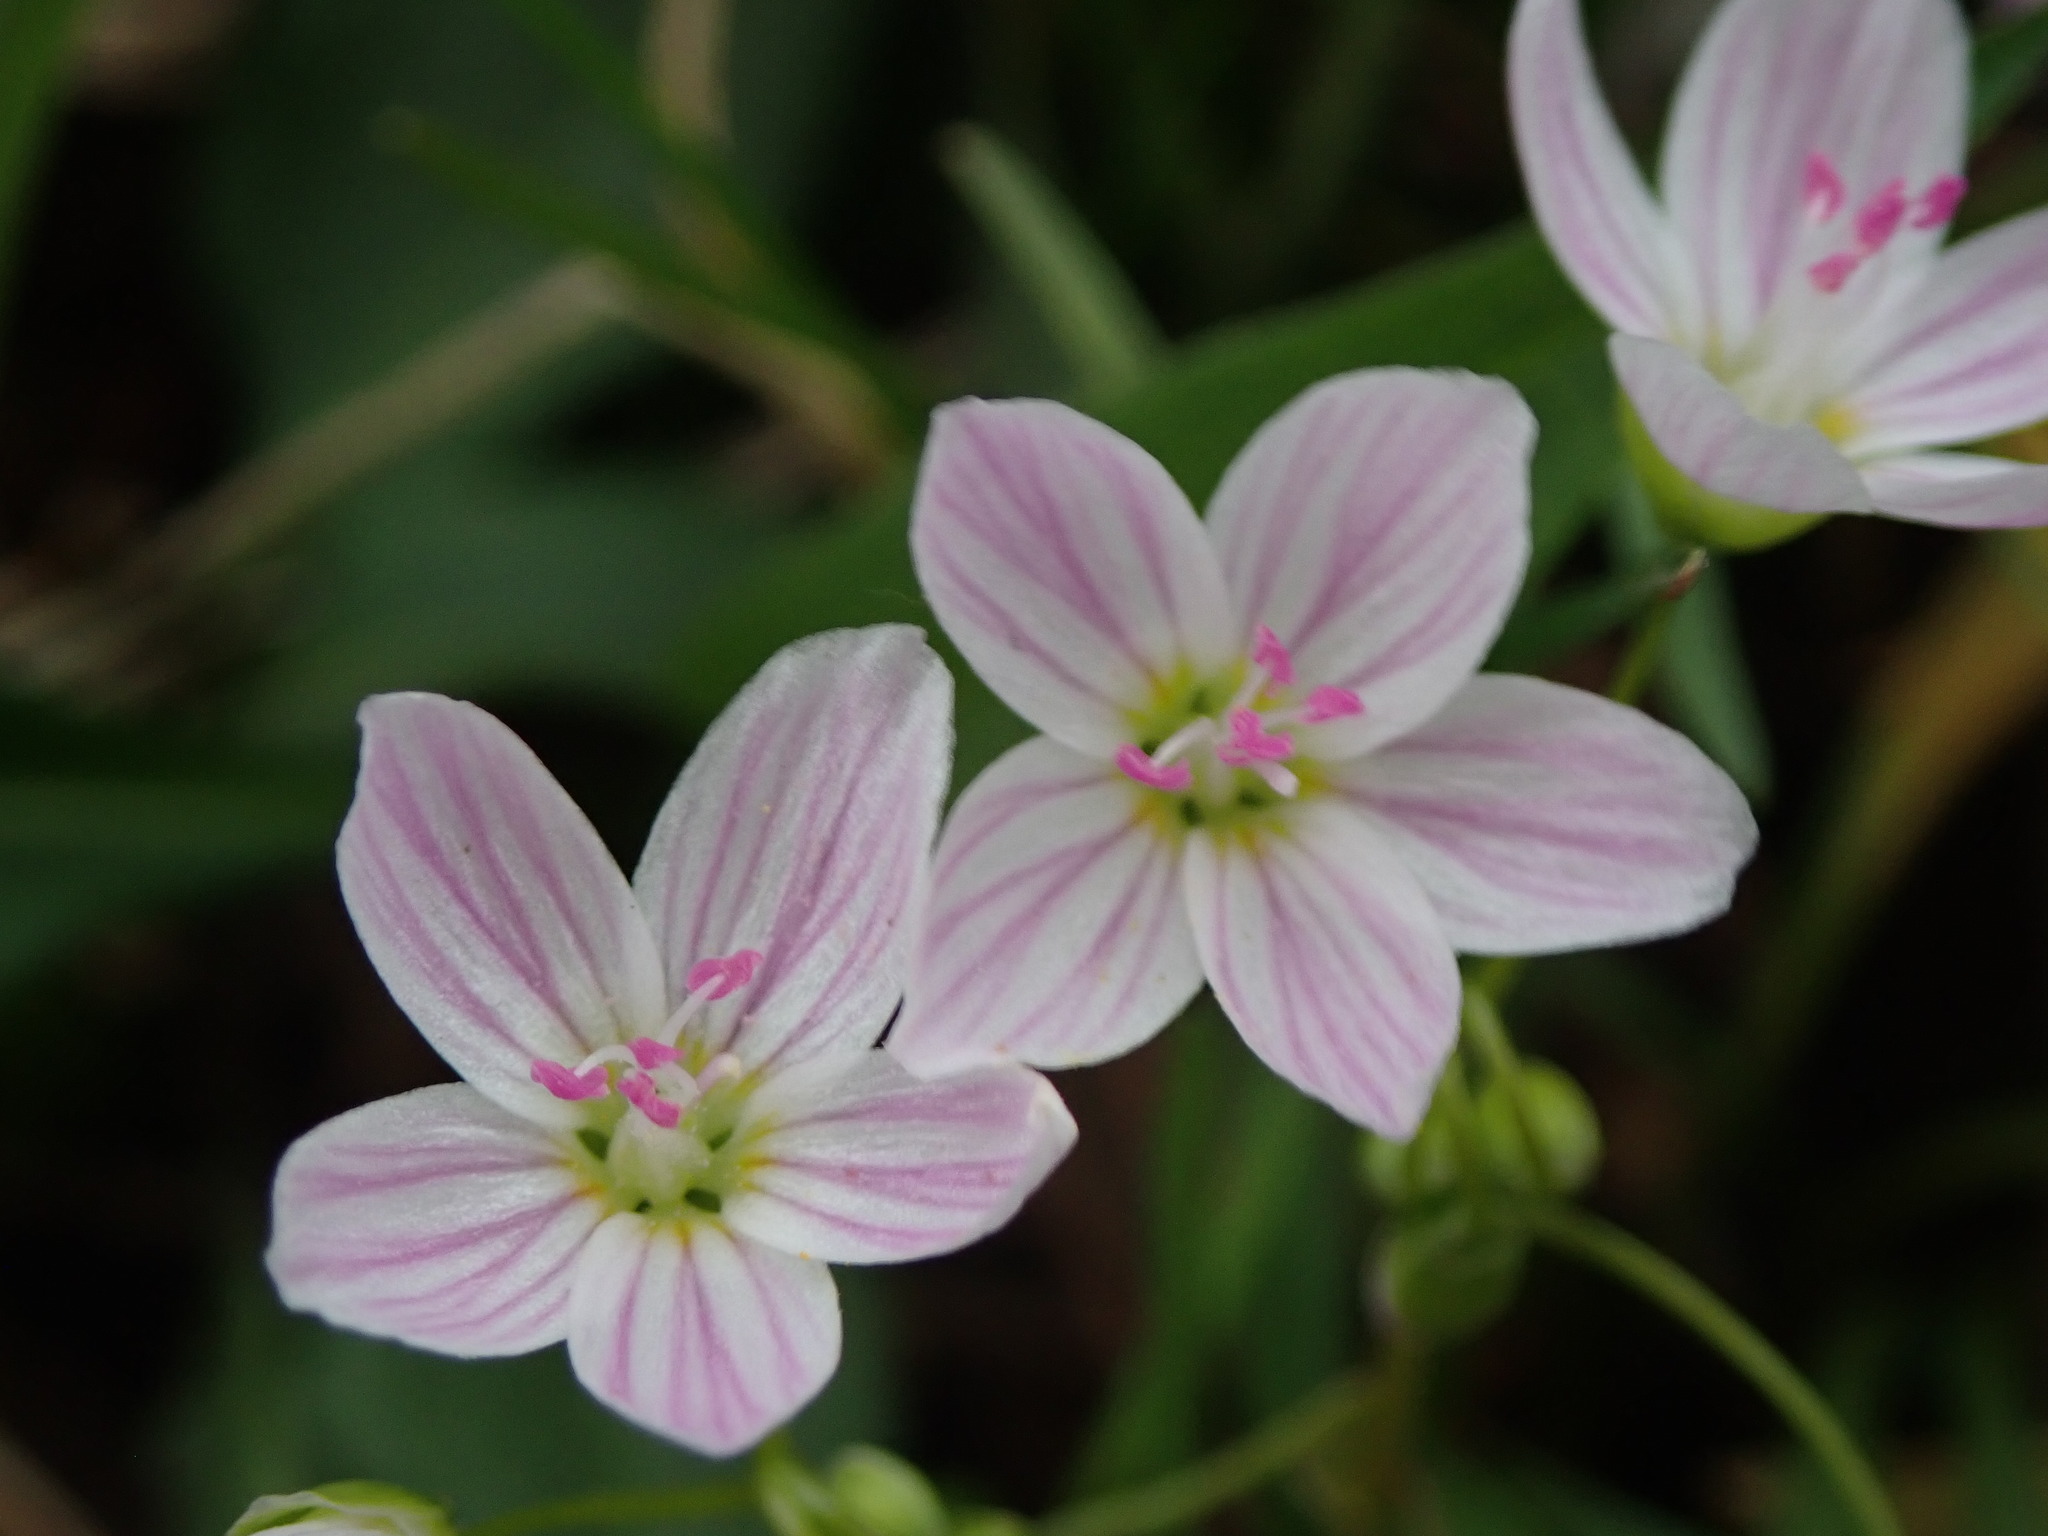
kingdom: Plantae
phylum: Tracheophyta
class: Magnoliopsida
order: Caryophyllales
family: Montiaceae
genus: Claytonia
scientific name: Claytonia virginica
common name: Virginia springbeauty
